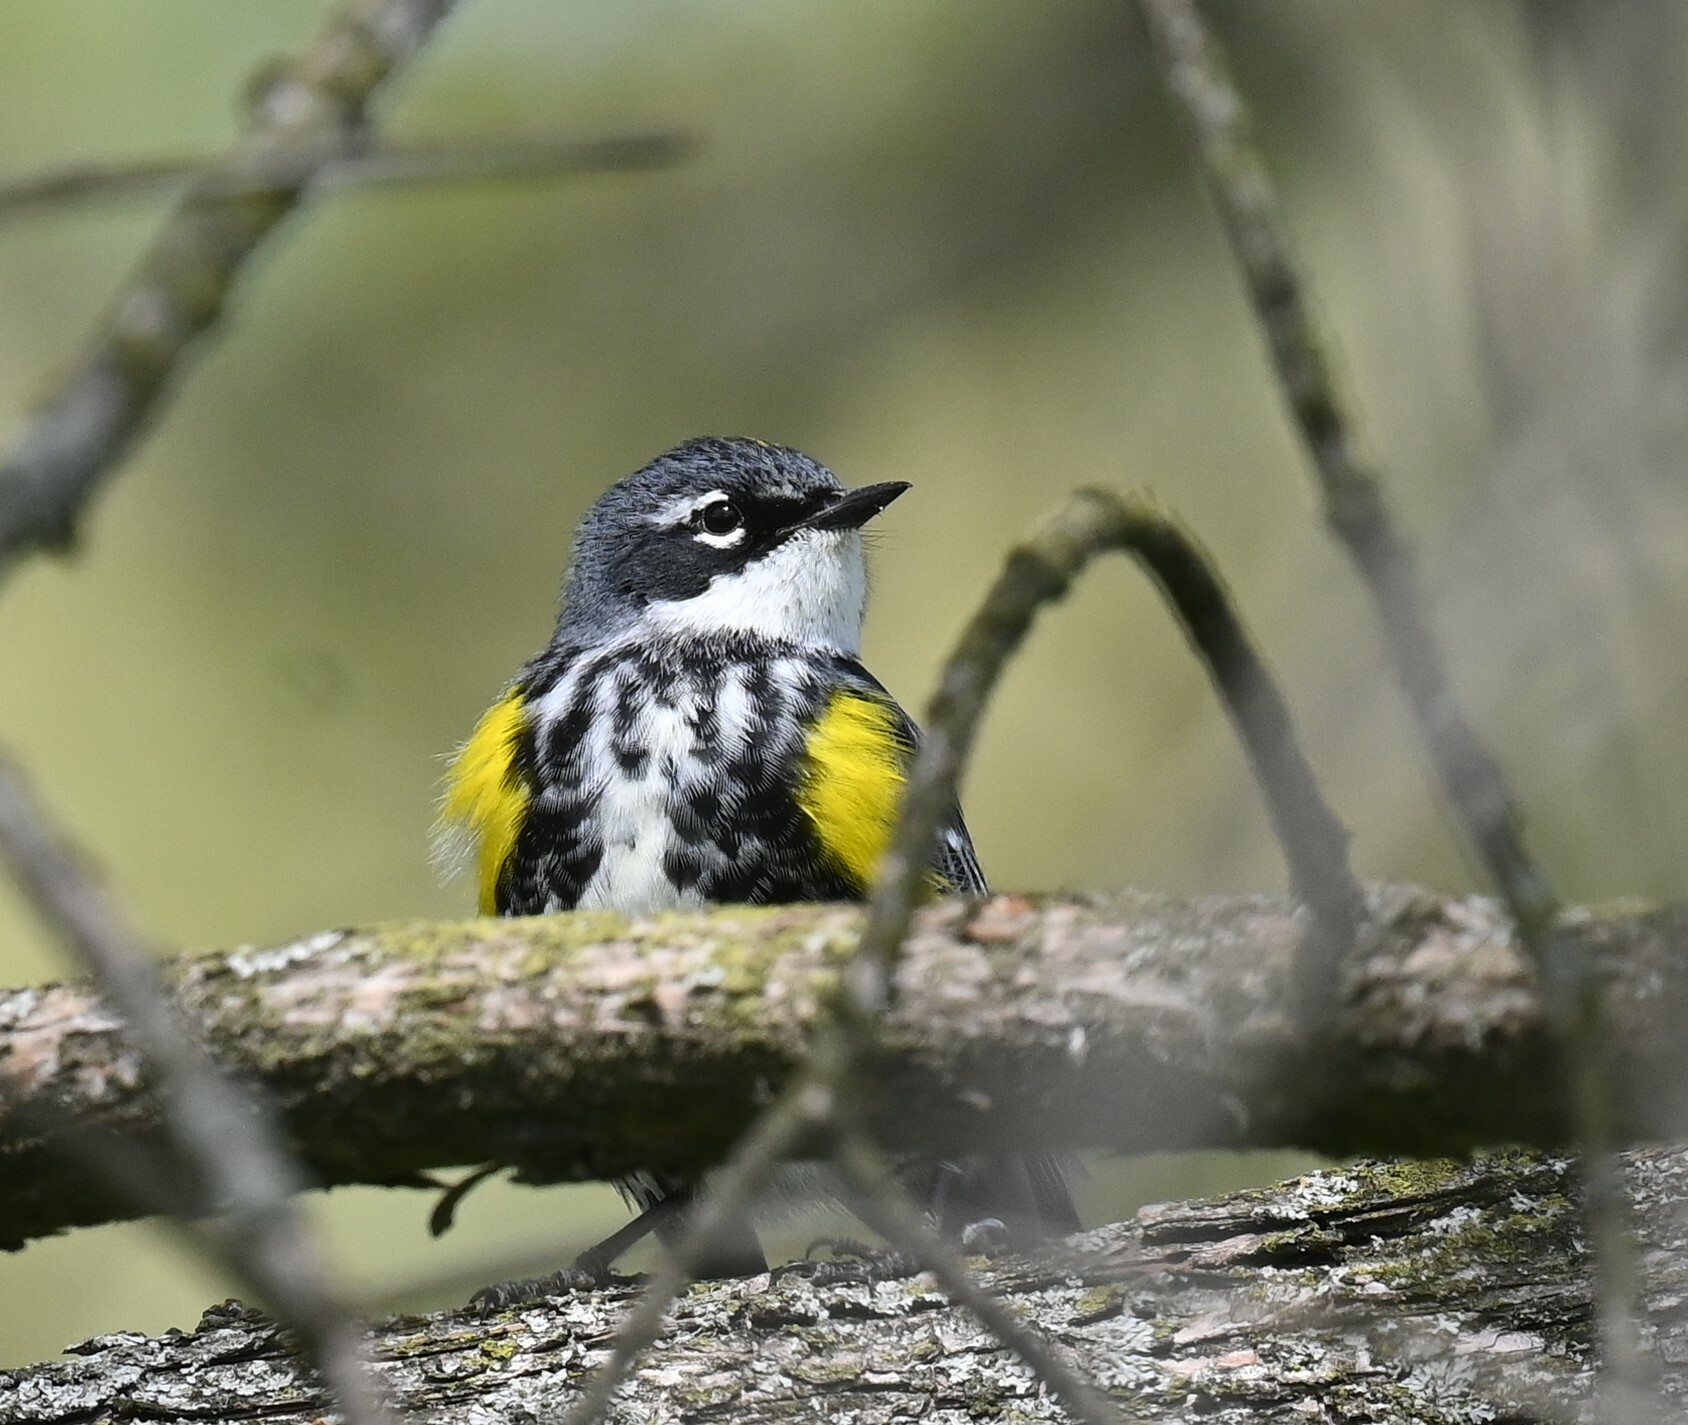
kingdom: Animalia
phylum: Chordata
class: Aves
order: Passeriformes
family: Parulidae
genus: Setophaga
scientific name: Setophaga coronata
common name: Myrtle warbler
